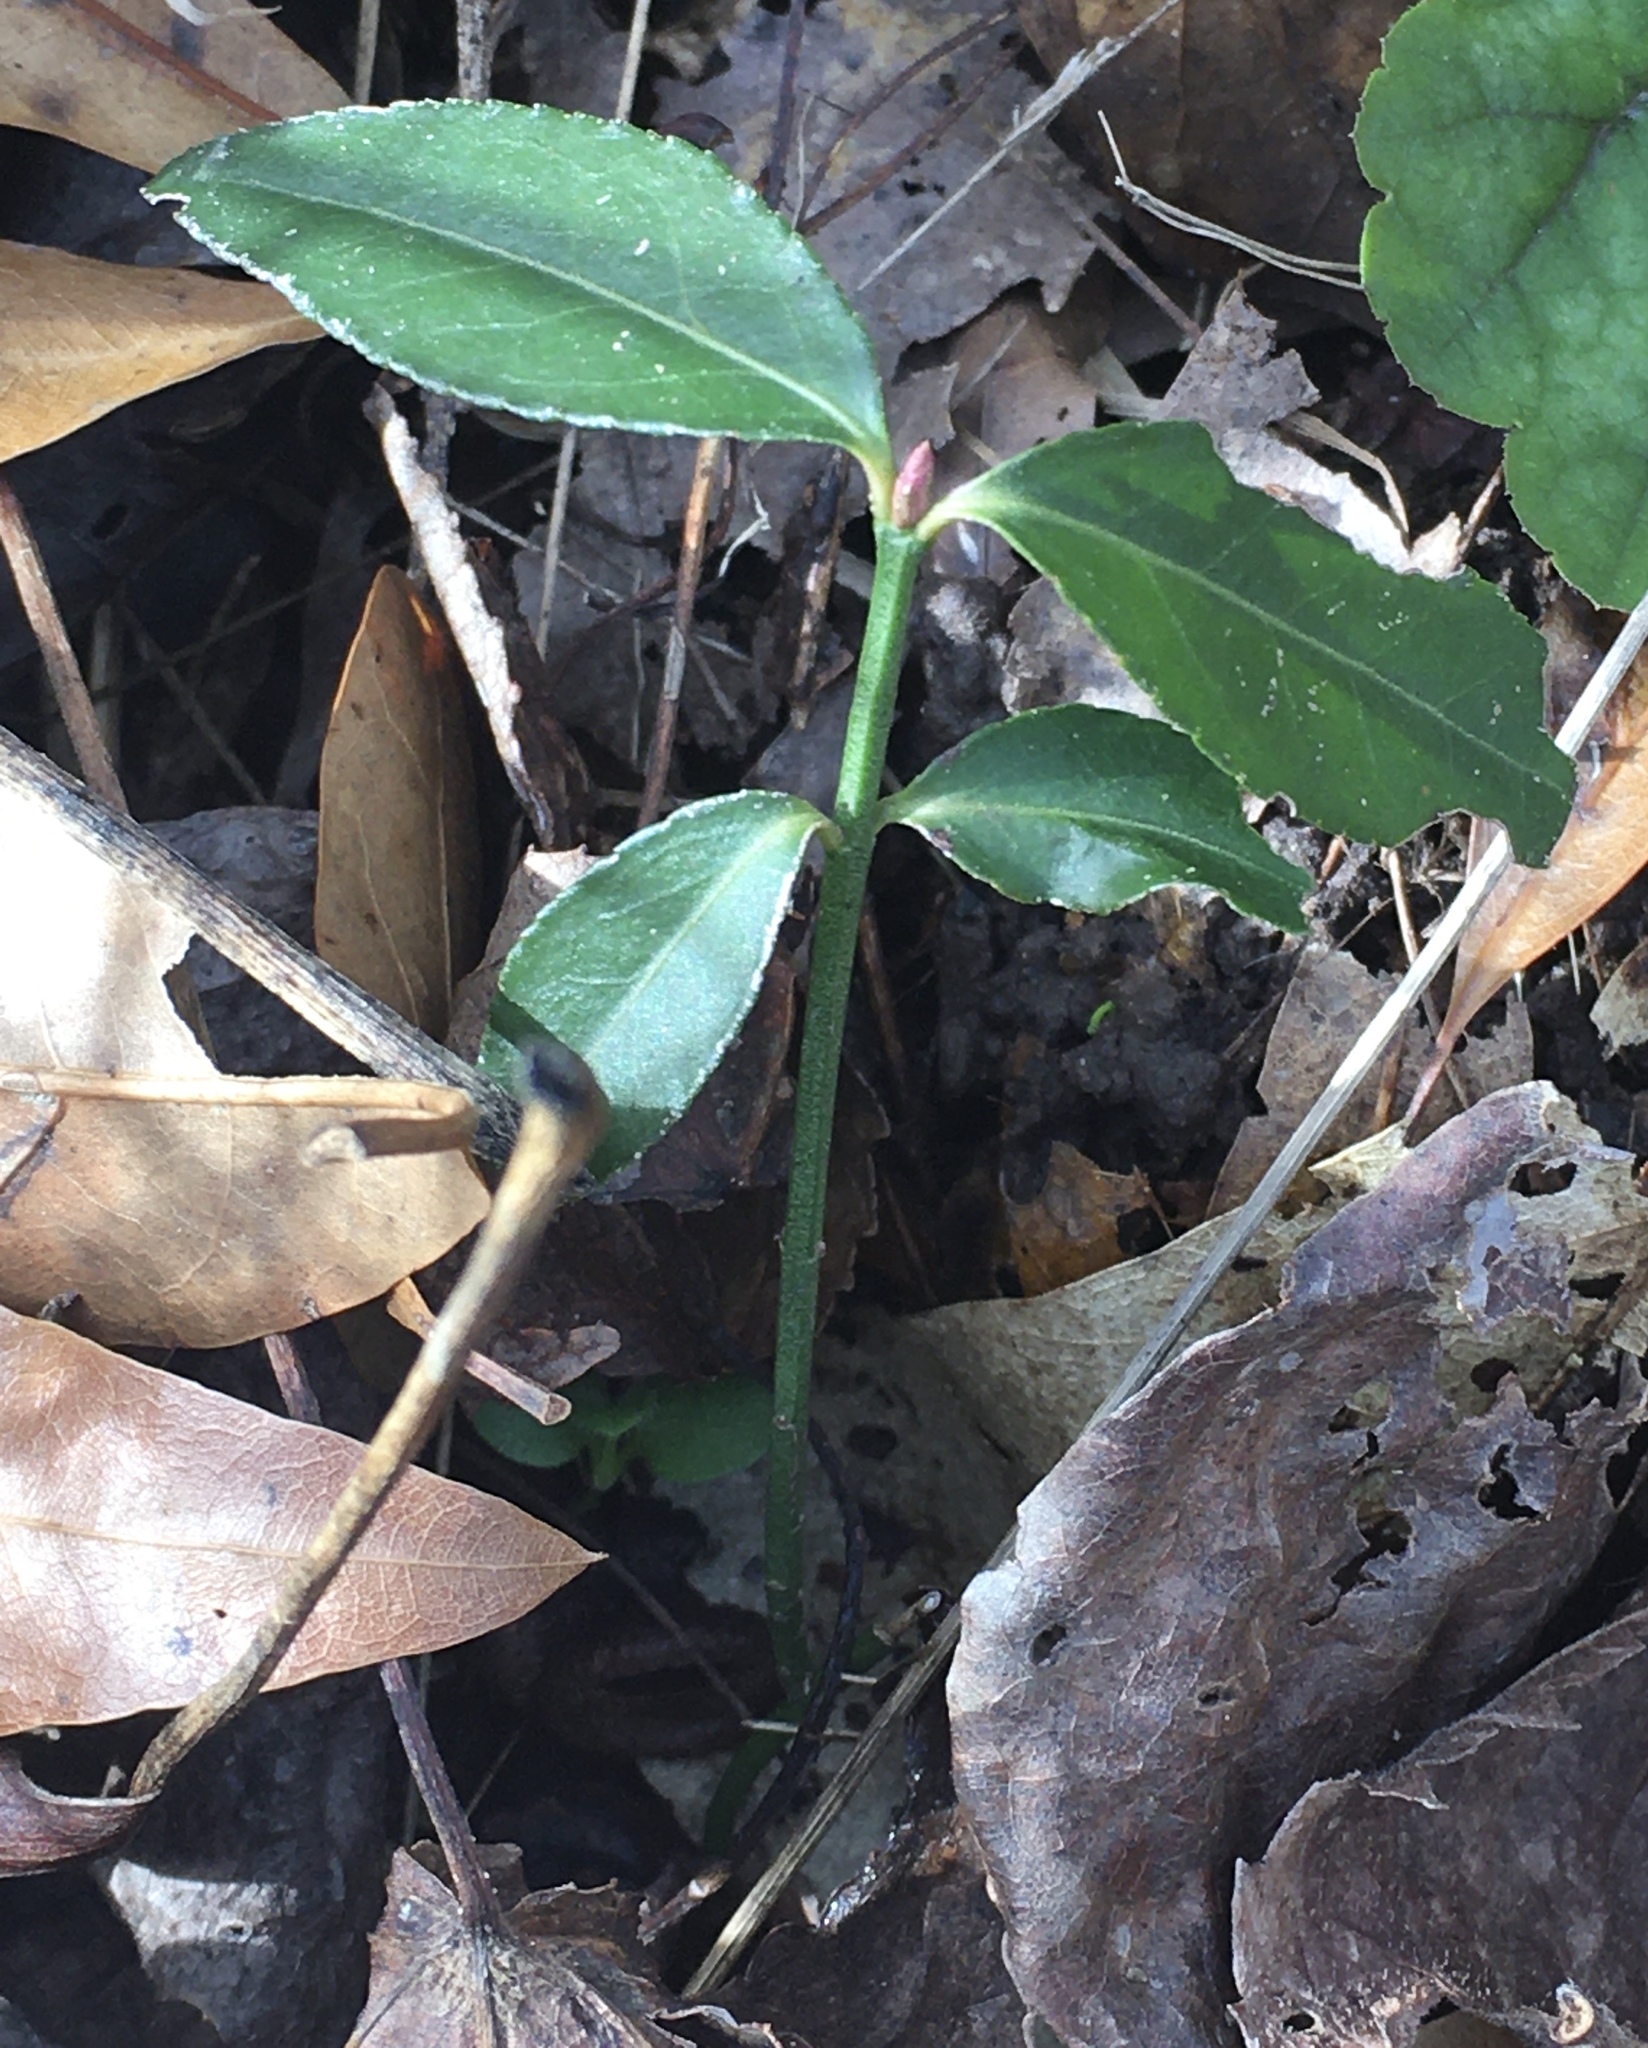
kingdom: Plantae
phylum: Tracheophyta
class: Magnoliopsida
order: Celastrales
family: Celastraceae
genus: Euonymus
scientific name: Euonymus americanus
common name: Bursting-heart
